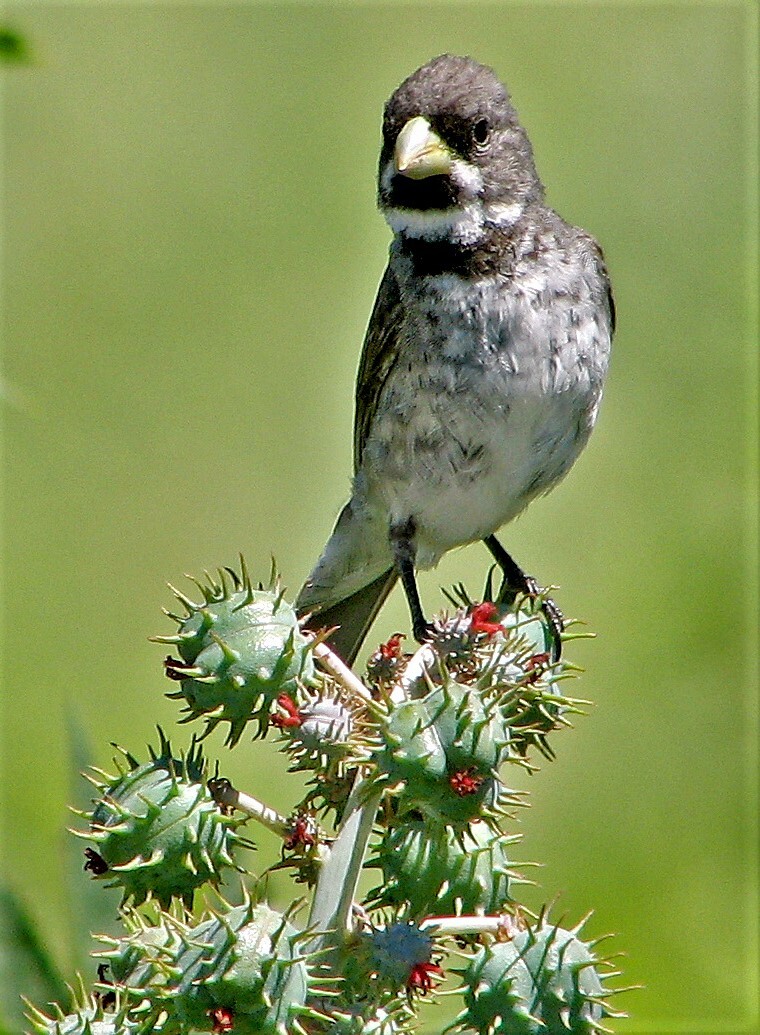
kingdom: Animalia
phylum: Chordata
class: Aves
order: Passeriformes
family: Thraupidae
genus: Sporophila
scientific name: Sporophila caerulescens
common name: Double-collared seedeater
